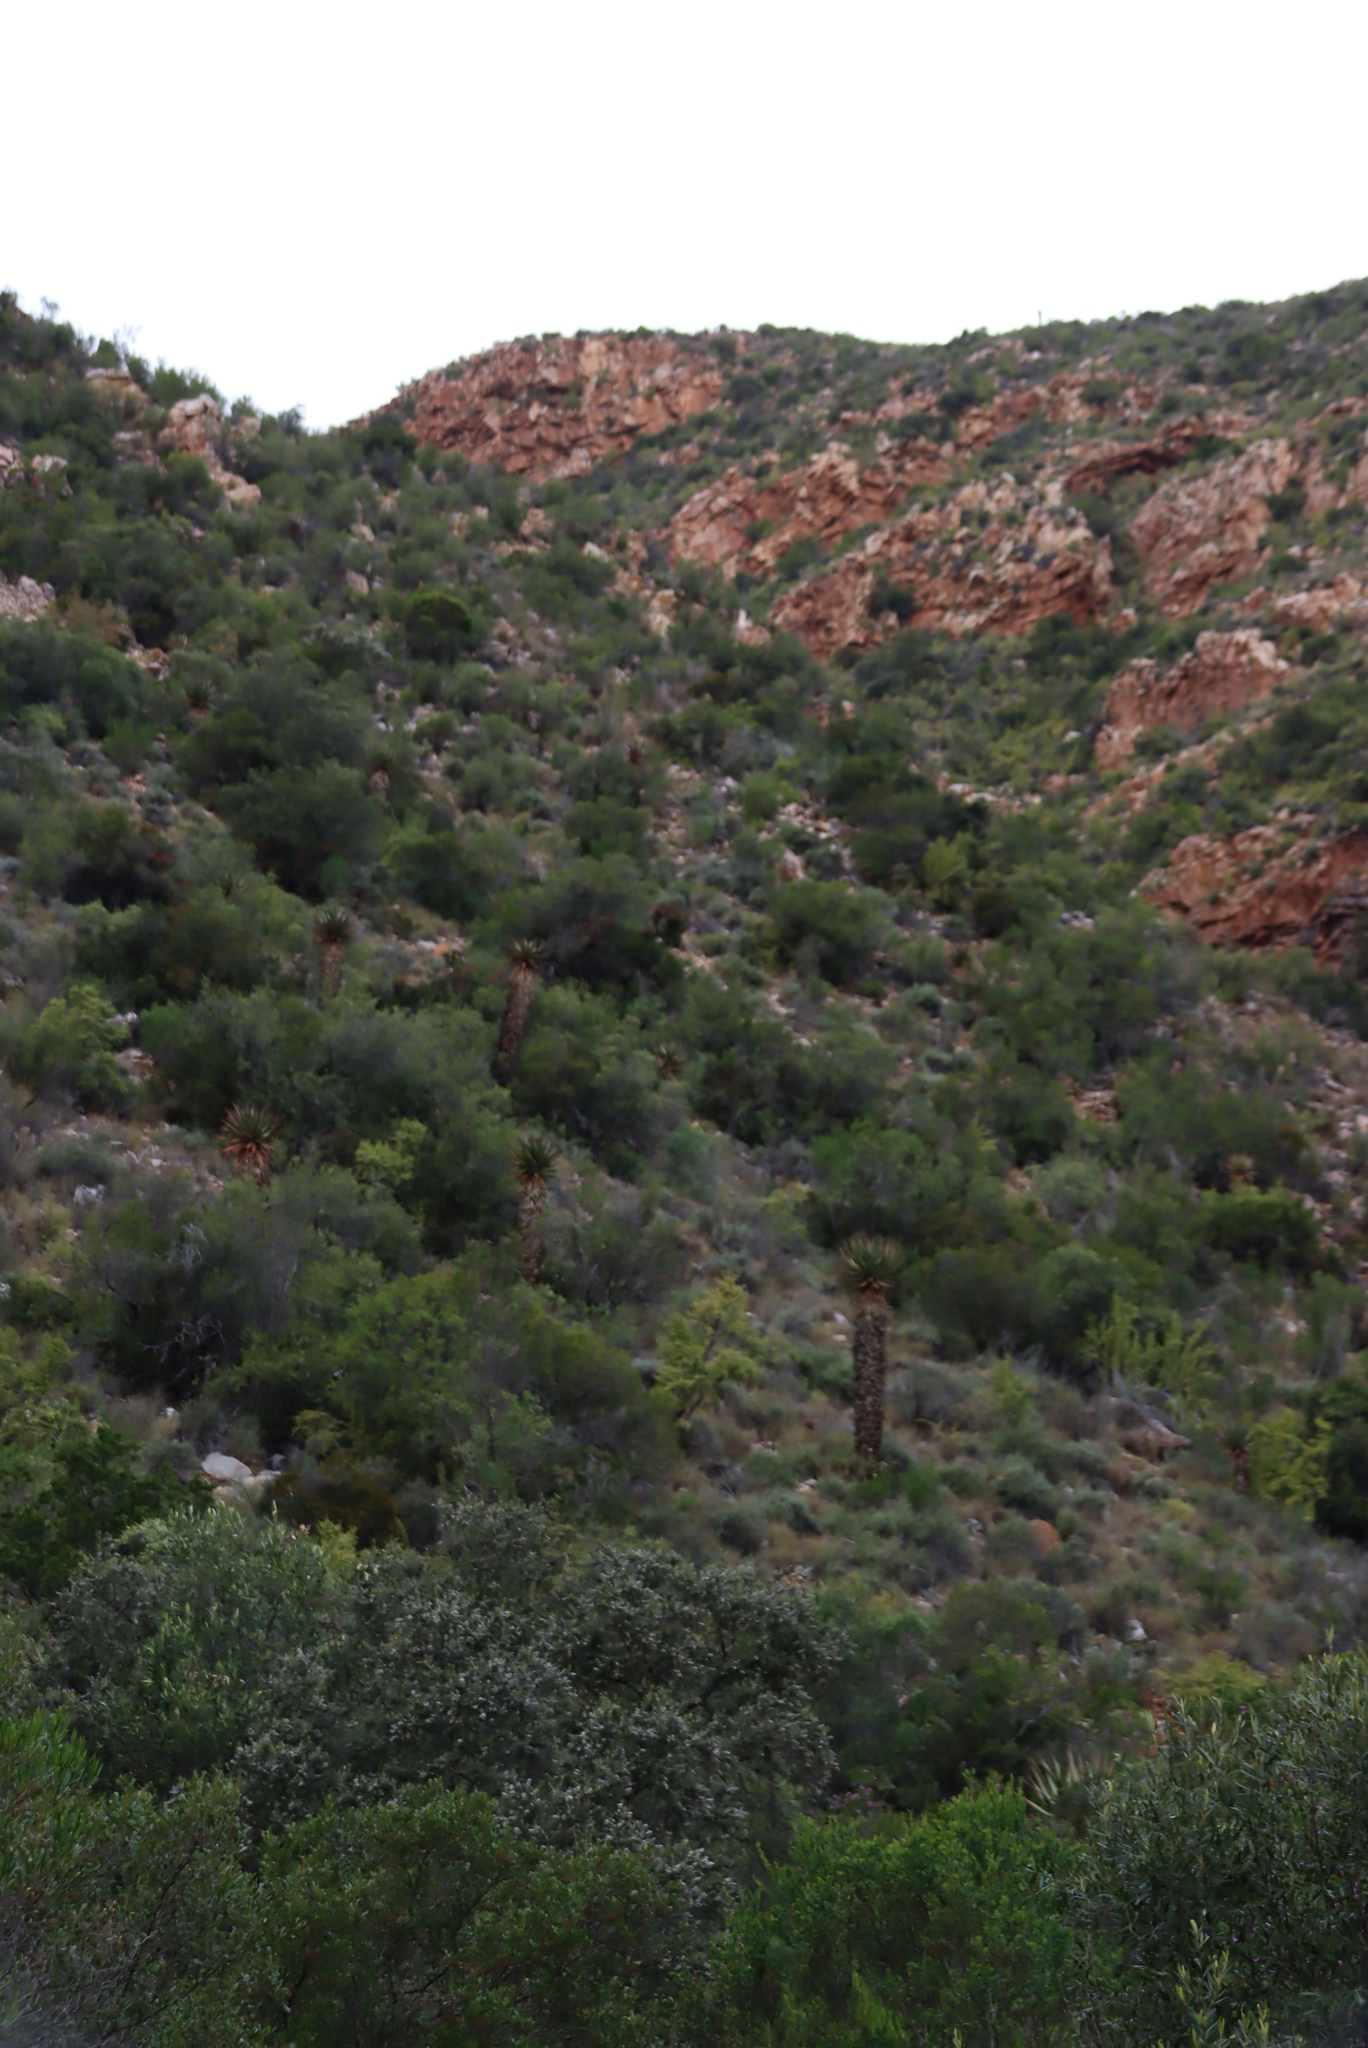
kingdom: Plantae
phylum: Tracheophyta
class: Liliopsida
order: Asparagales
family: Asphodelaceae
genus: Aloe
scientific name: Aloe ferox
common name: Bitter aloe
